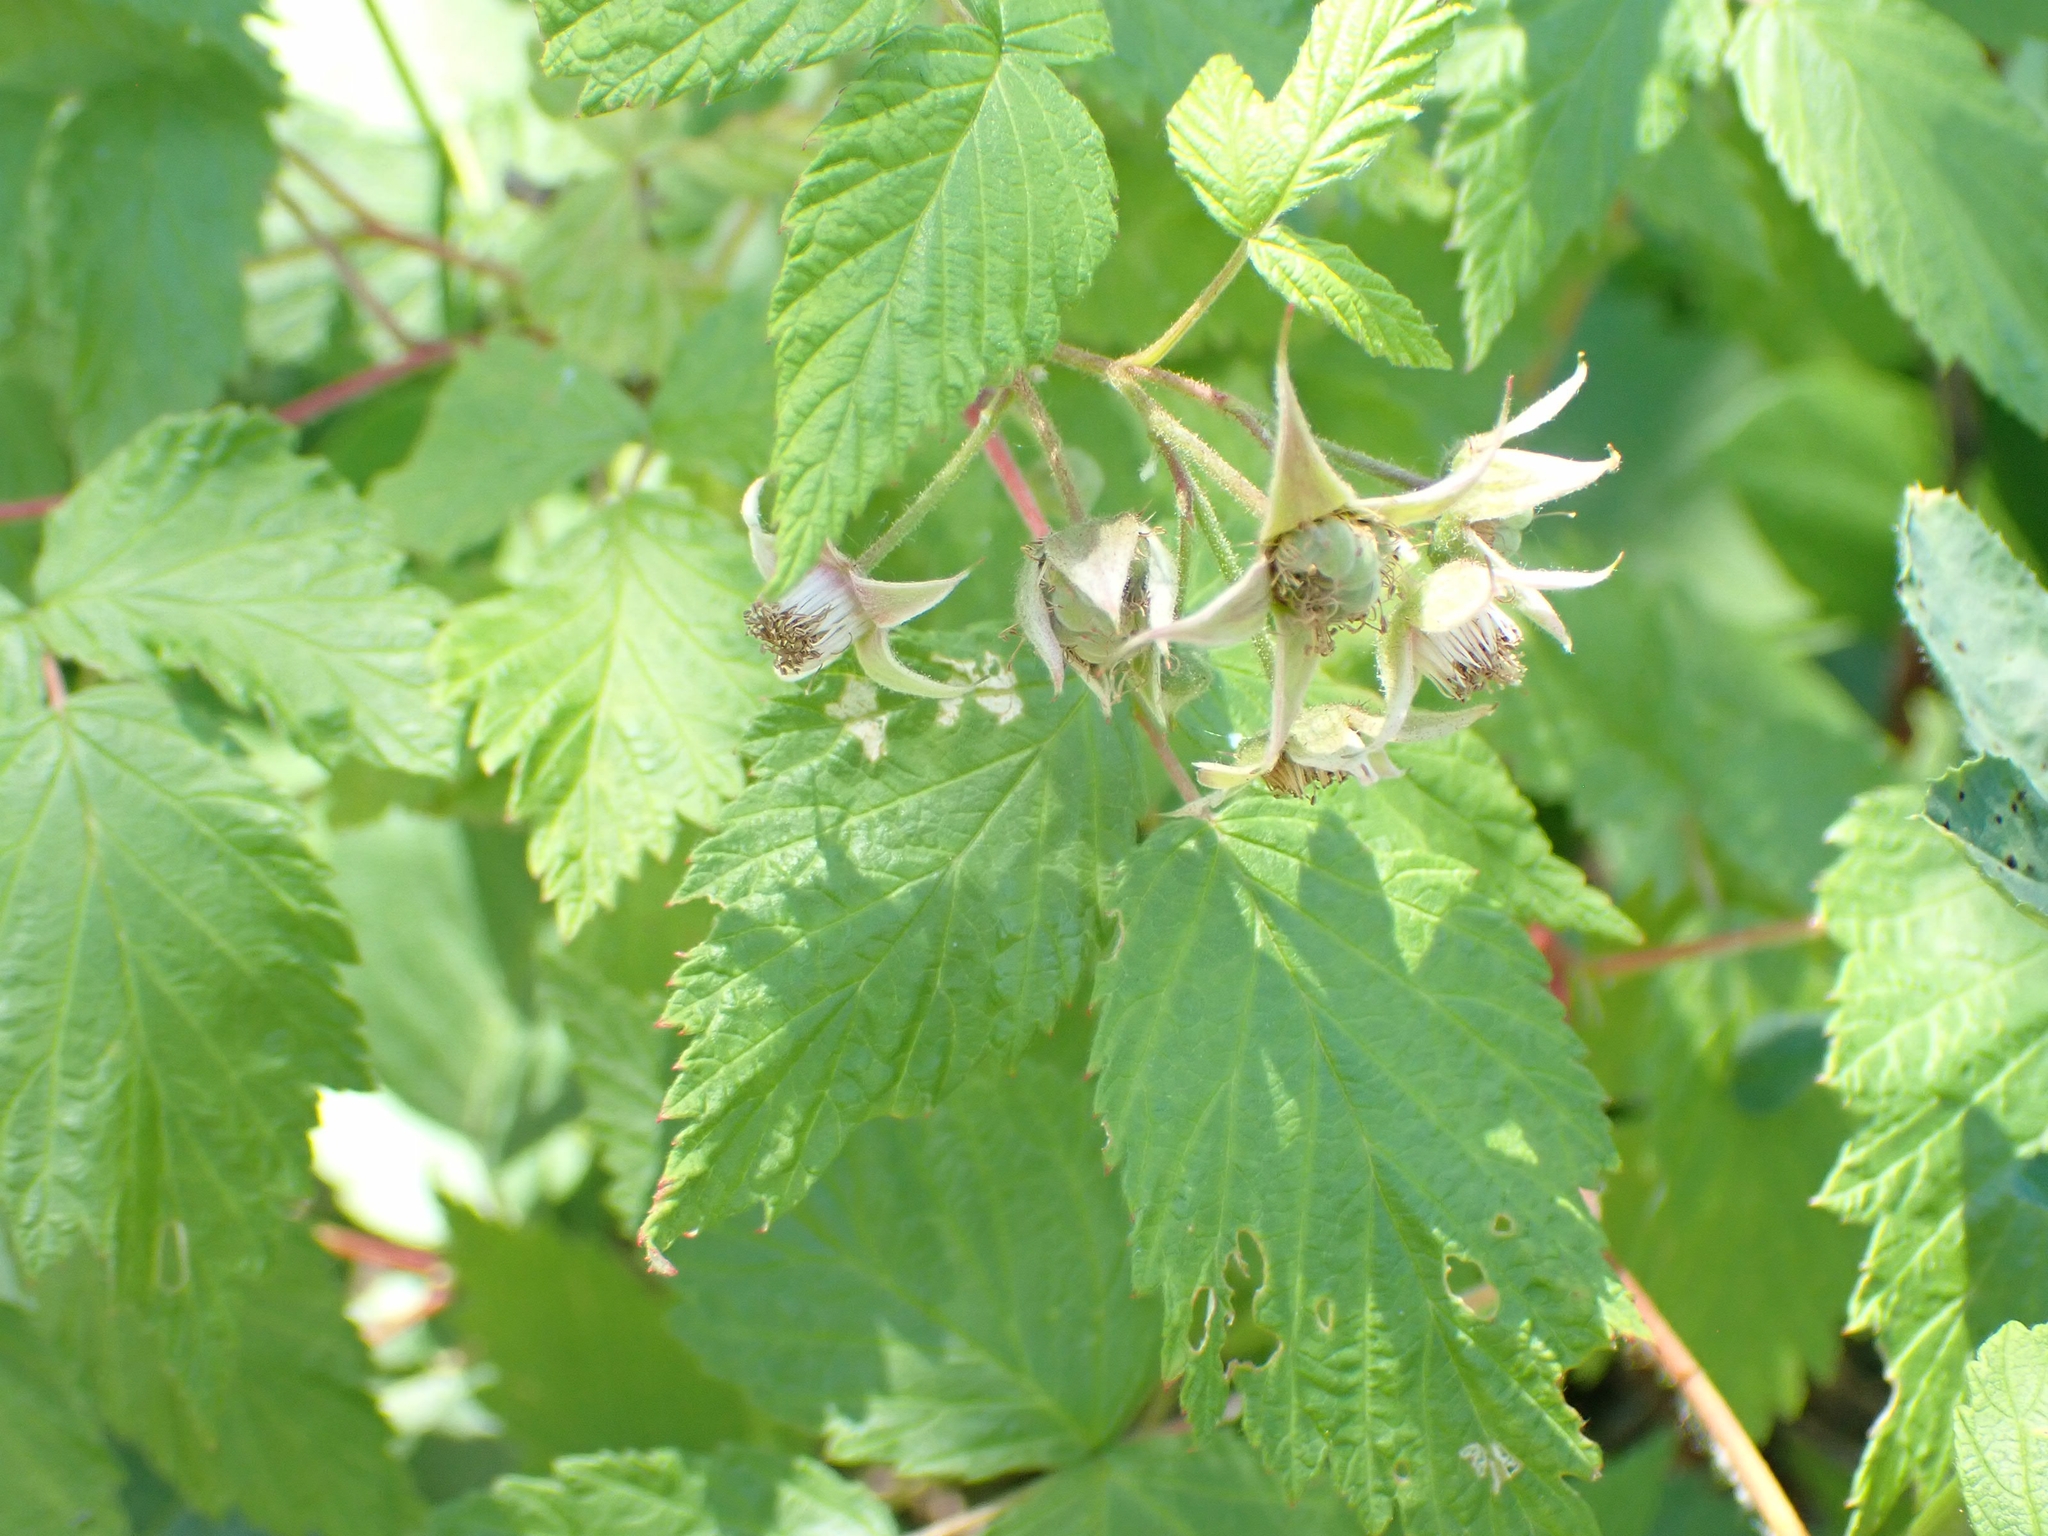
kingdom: Plantae
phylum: Tracheophyta
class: Magnoliopsida
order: Rosales
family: Rosaceae
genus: Rubus
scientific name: Rubus idaeus
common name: Raspberry
